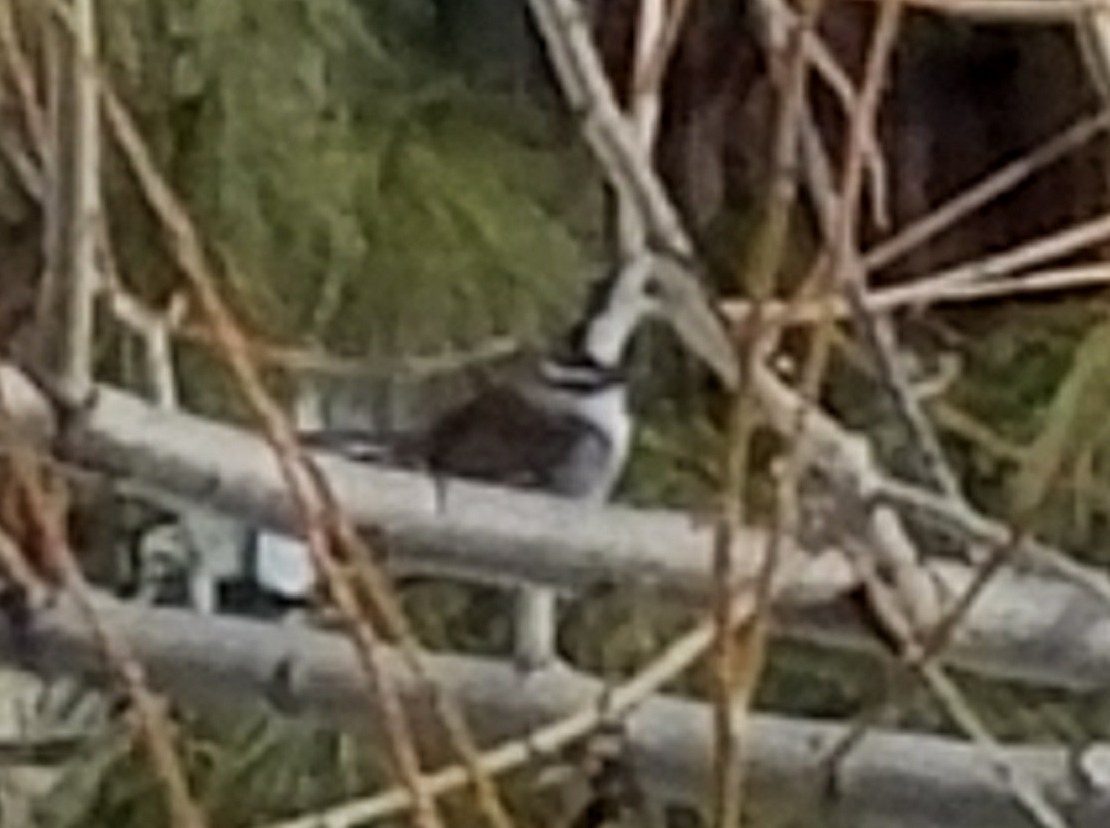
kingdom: Animalia
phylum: Chordata
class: Aves
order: Passeriformes
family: Troglodytidae
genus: Thryomanes
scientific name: Thryomanes bewickii
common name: Bewick's wren
